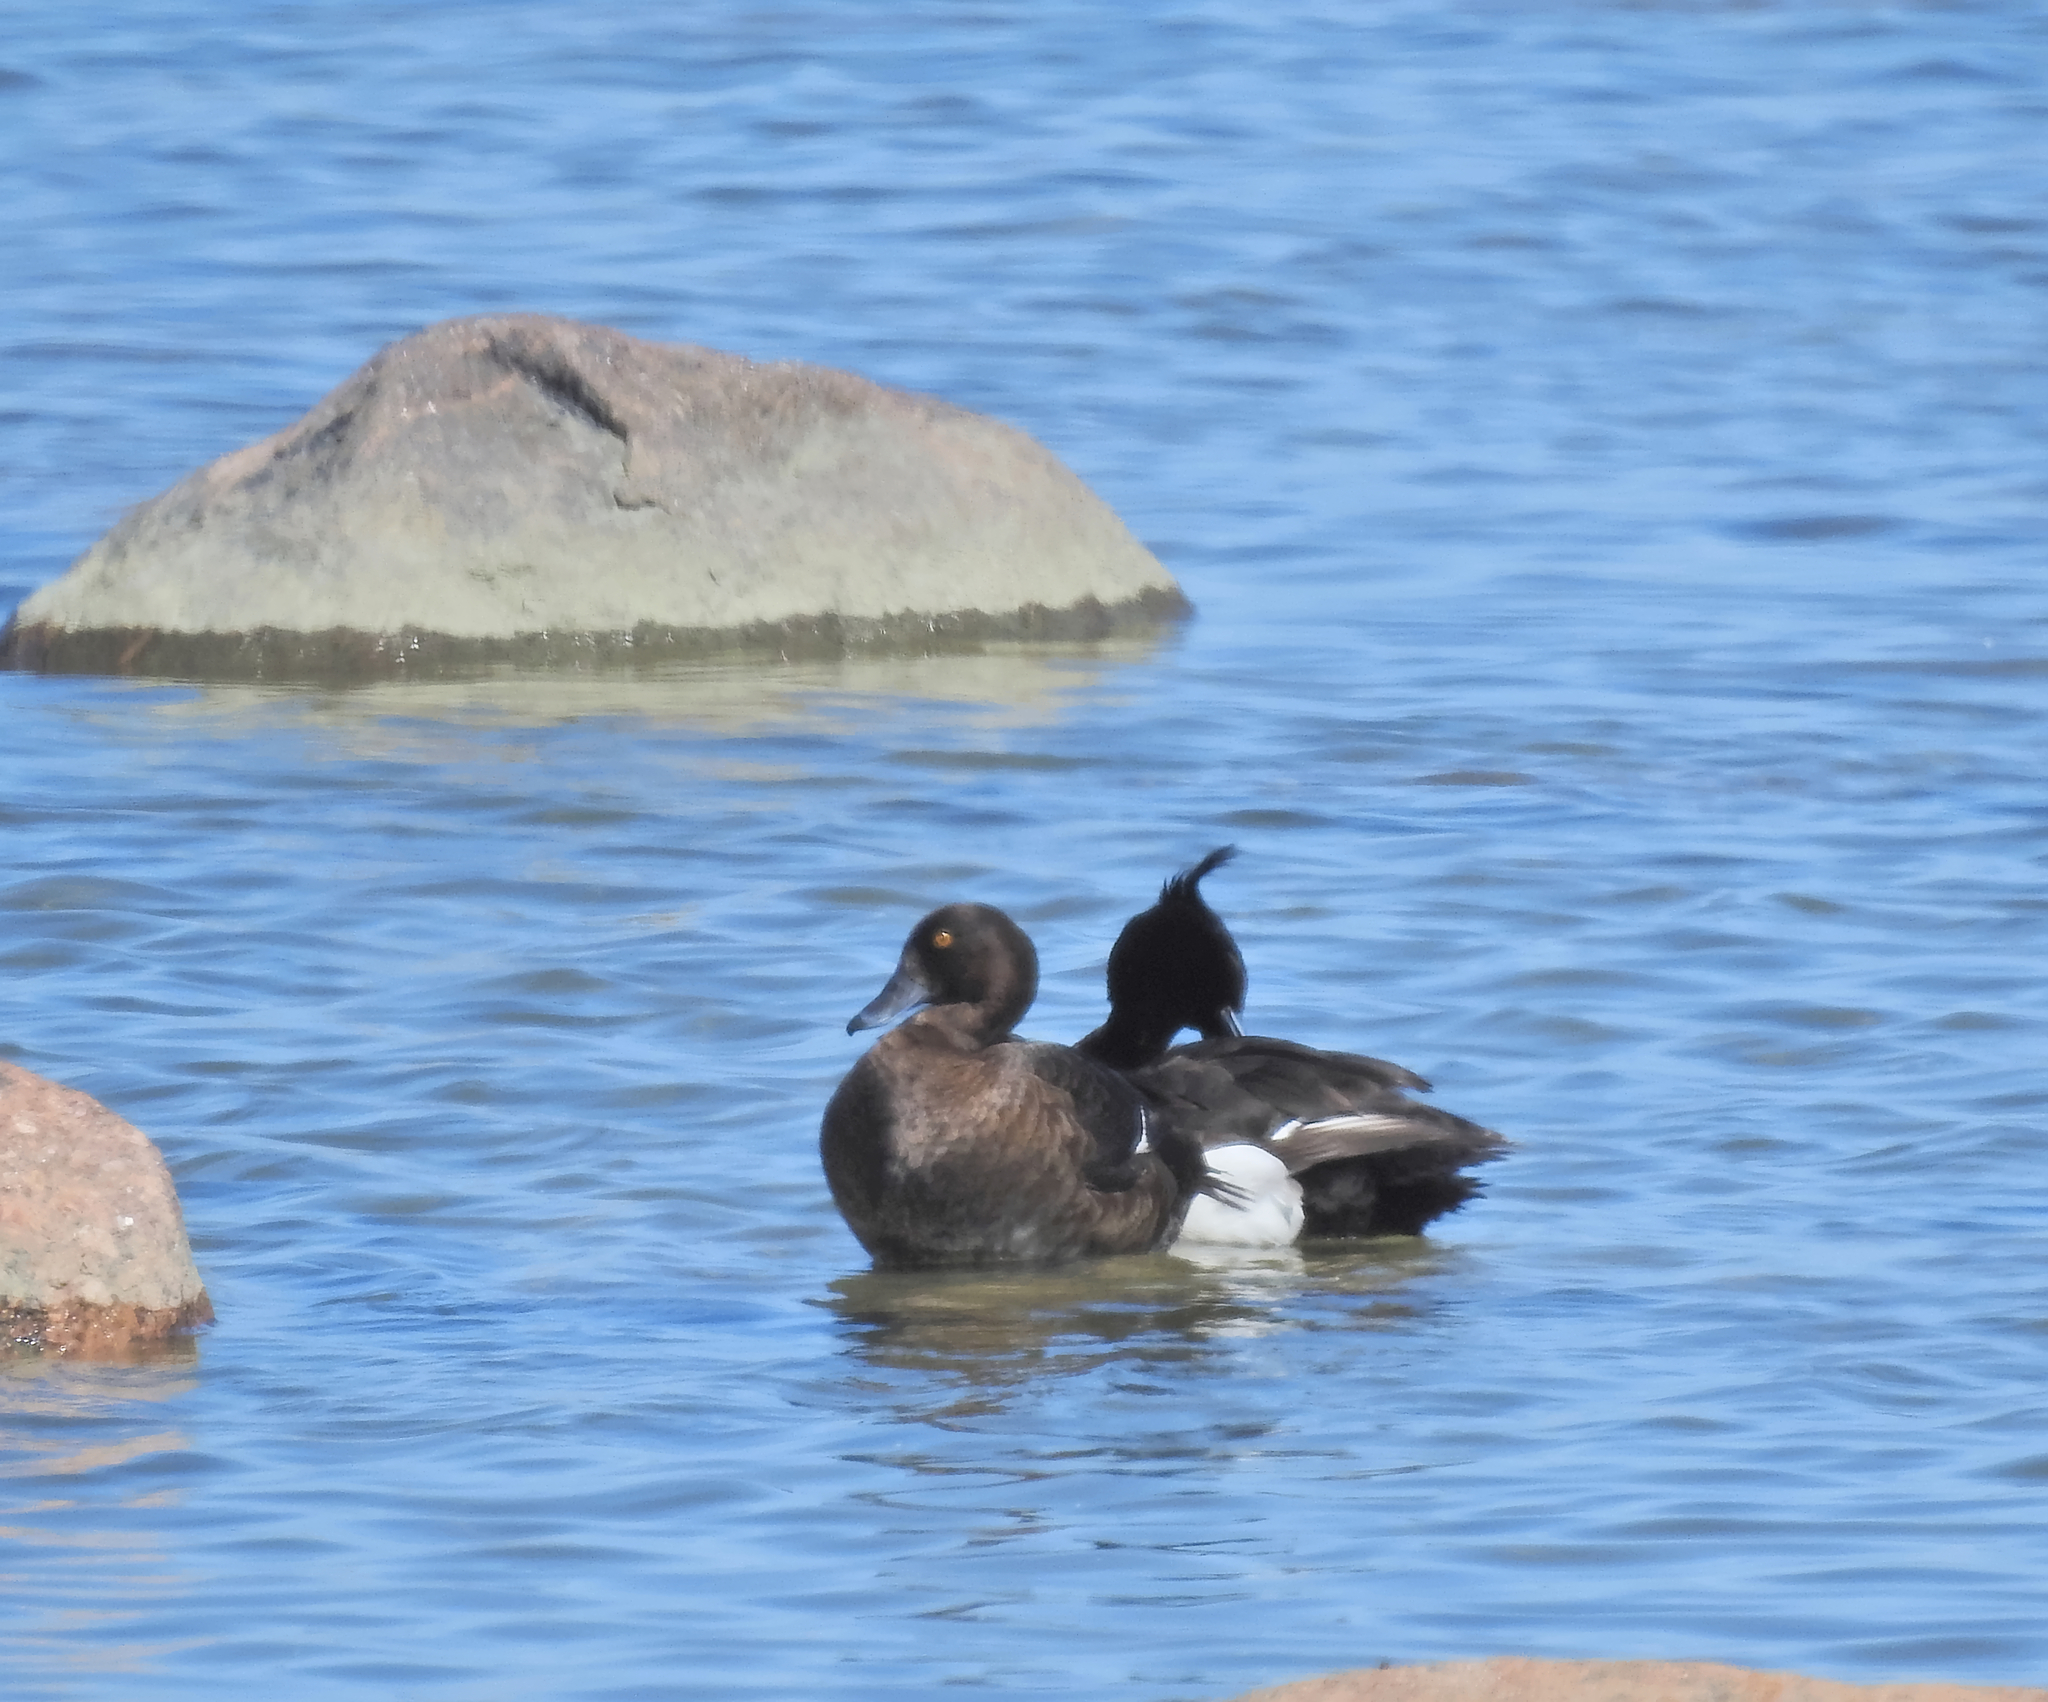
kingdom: Animalia
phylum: Chordata
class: Aves
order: Anseriformes
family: Anatidae
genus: Aythya
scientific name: Aythya fuligula
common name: Tufted duck
